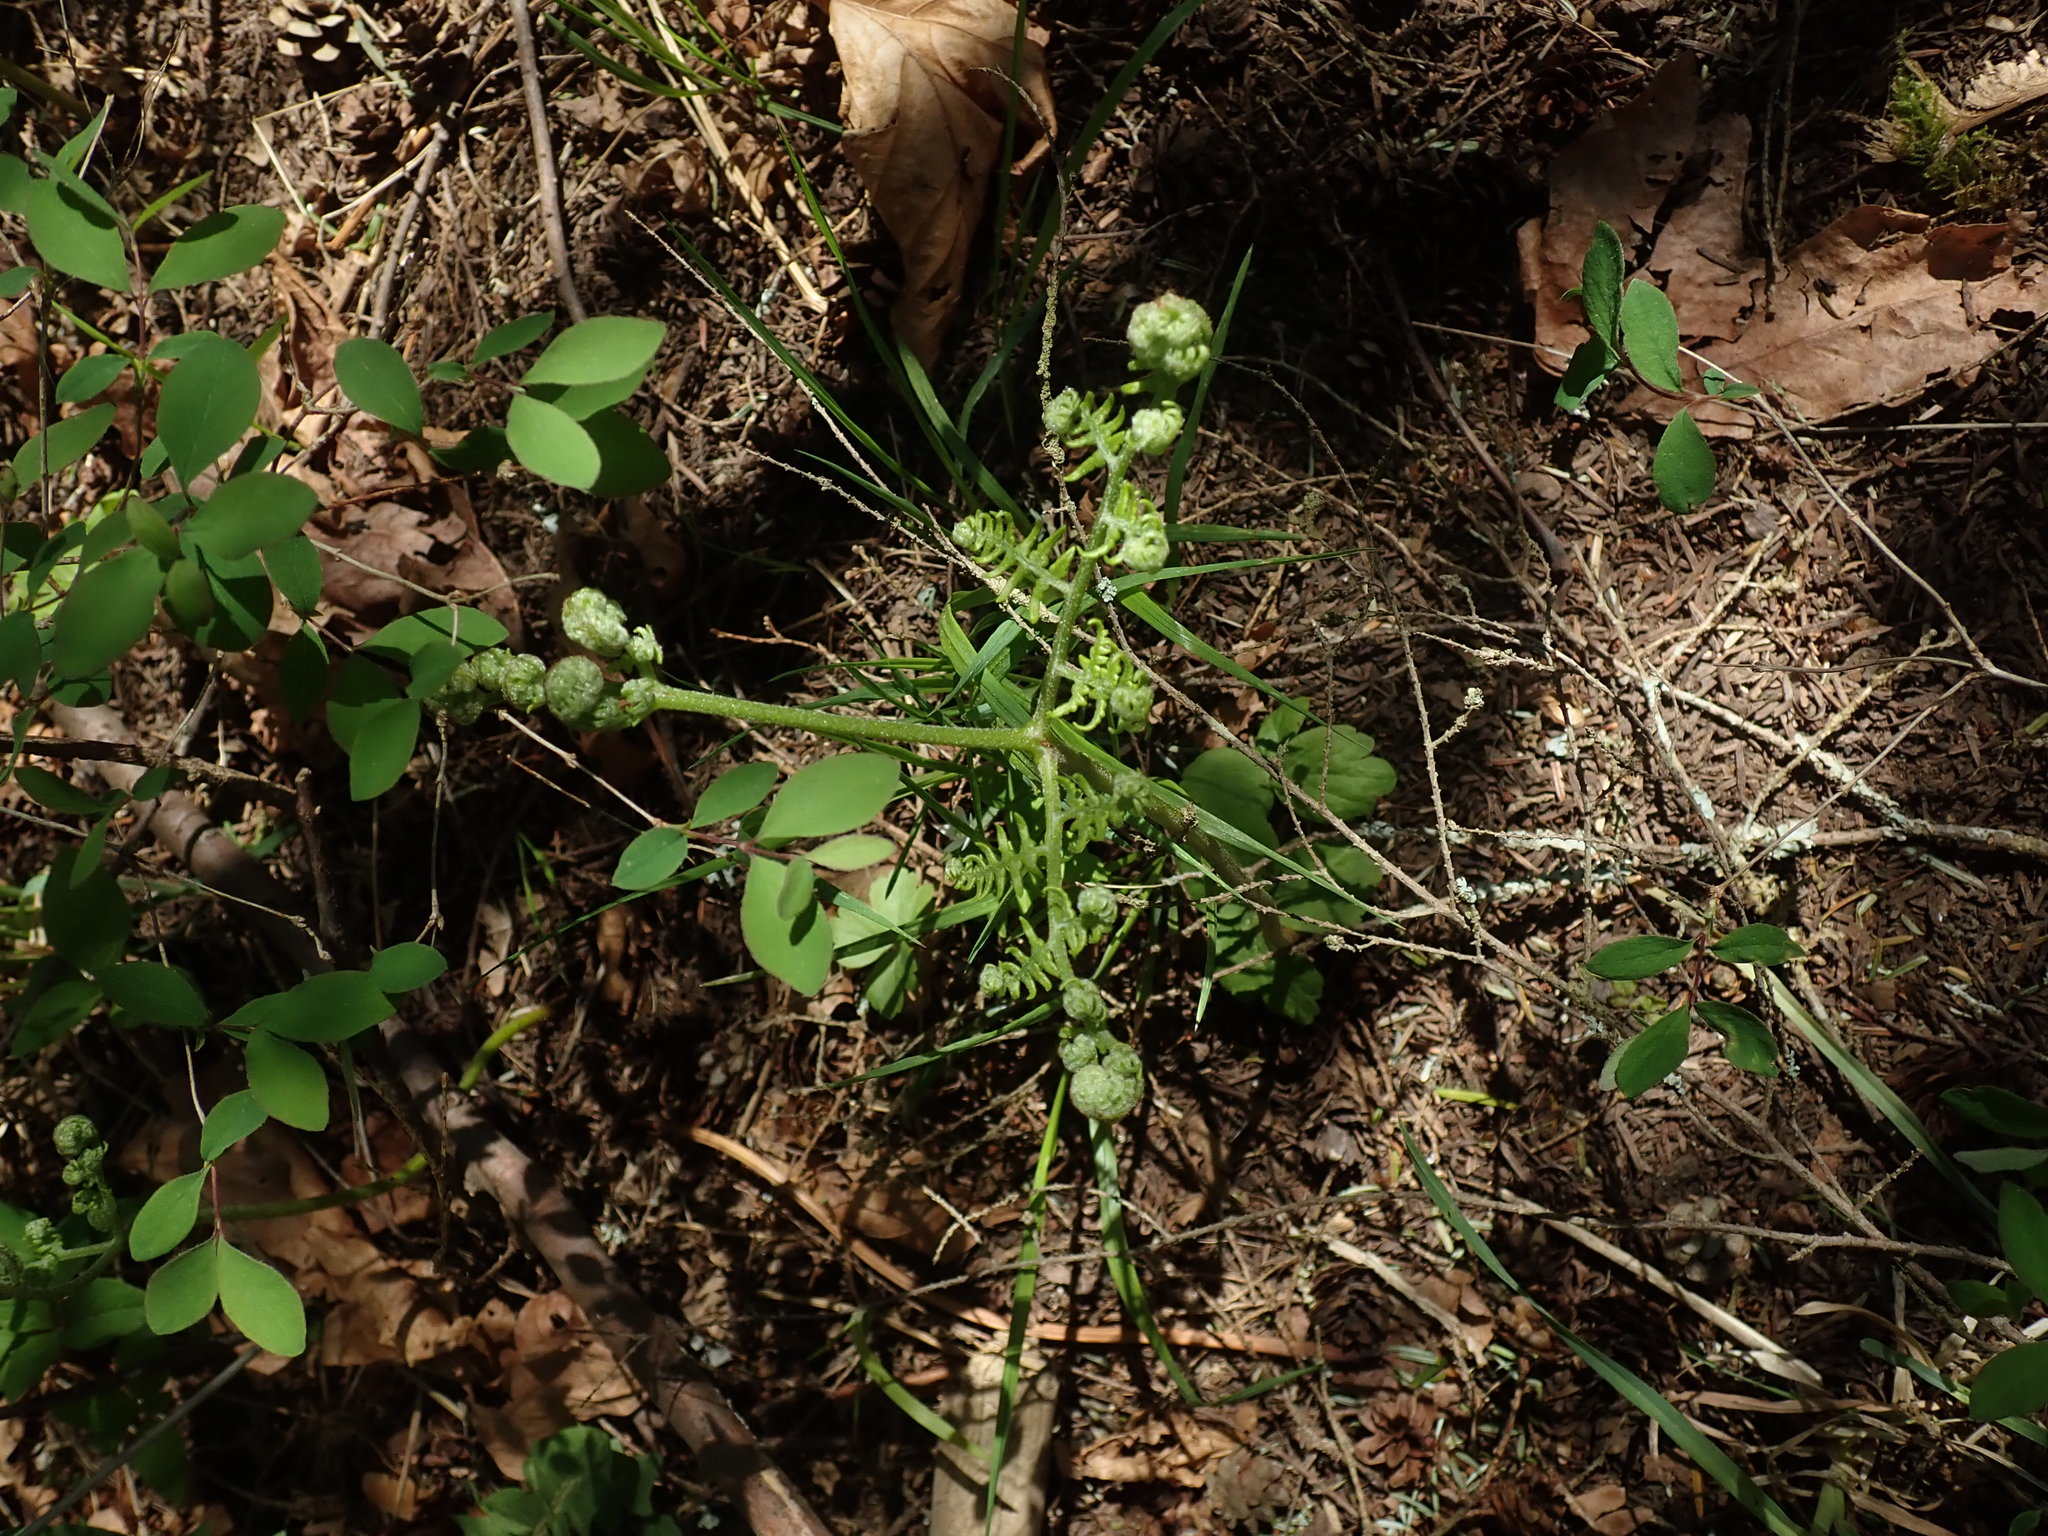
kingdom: Plantae
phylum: Tracheophyta
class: Polypodiopsida
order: Polypodiales
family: Dennstaedtiaceae
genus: Pteridium
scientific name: Pteridium aquilinum
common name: Bracken
